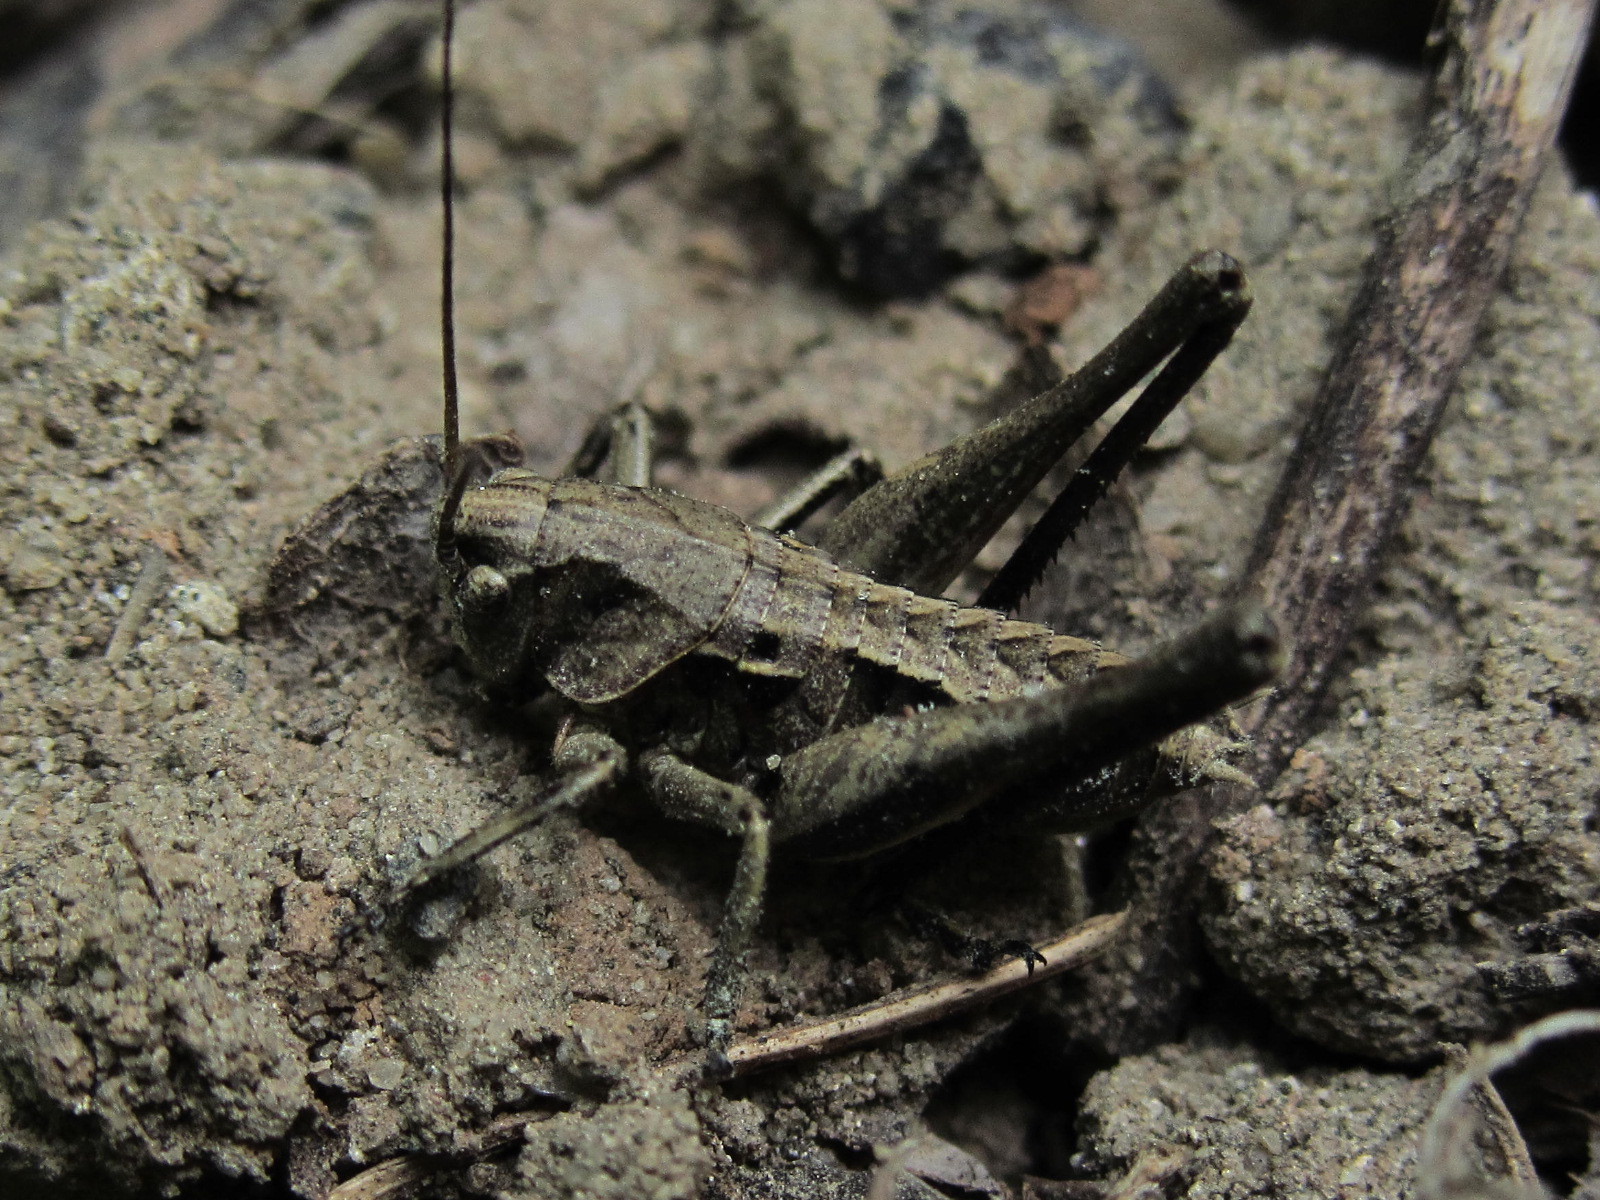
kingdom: Animalia
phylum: Arthropoda
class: Insecta
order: Orthoptera
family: Tettigoniidae
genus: Decticus
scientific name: Decticus verrucivorus
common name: Wart-biter
